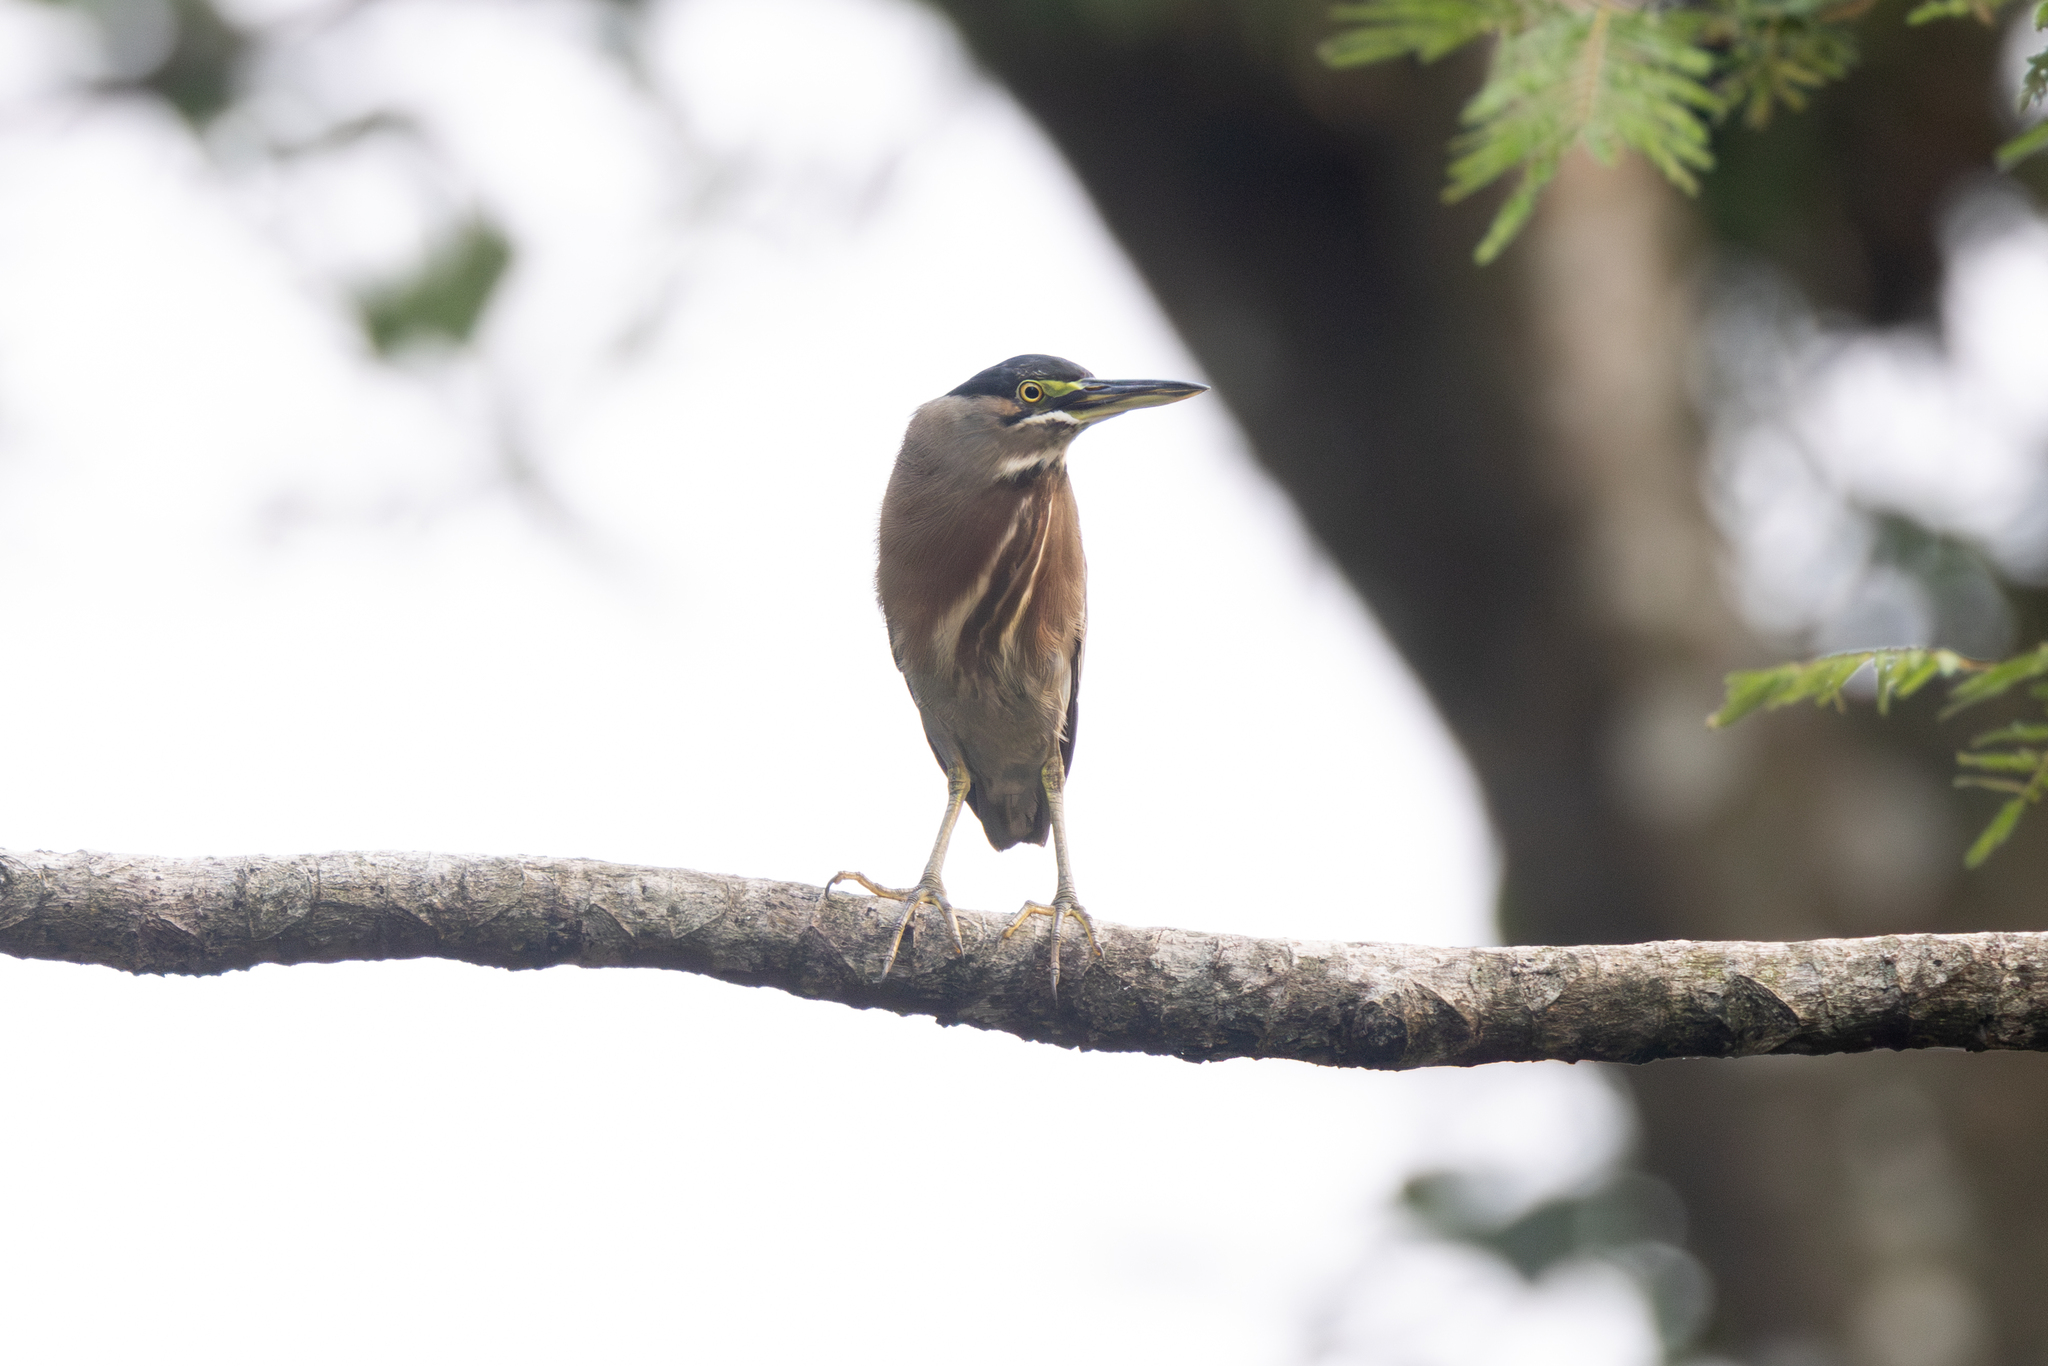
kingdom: Animalia
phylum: Chordata
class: Aves
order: Pelecaniformes
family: Ardeidae
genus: Butorides
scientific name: Butorides striata
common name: Striated heron
